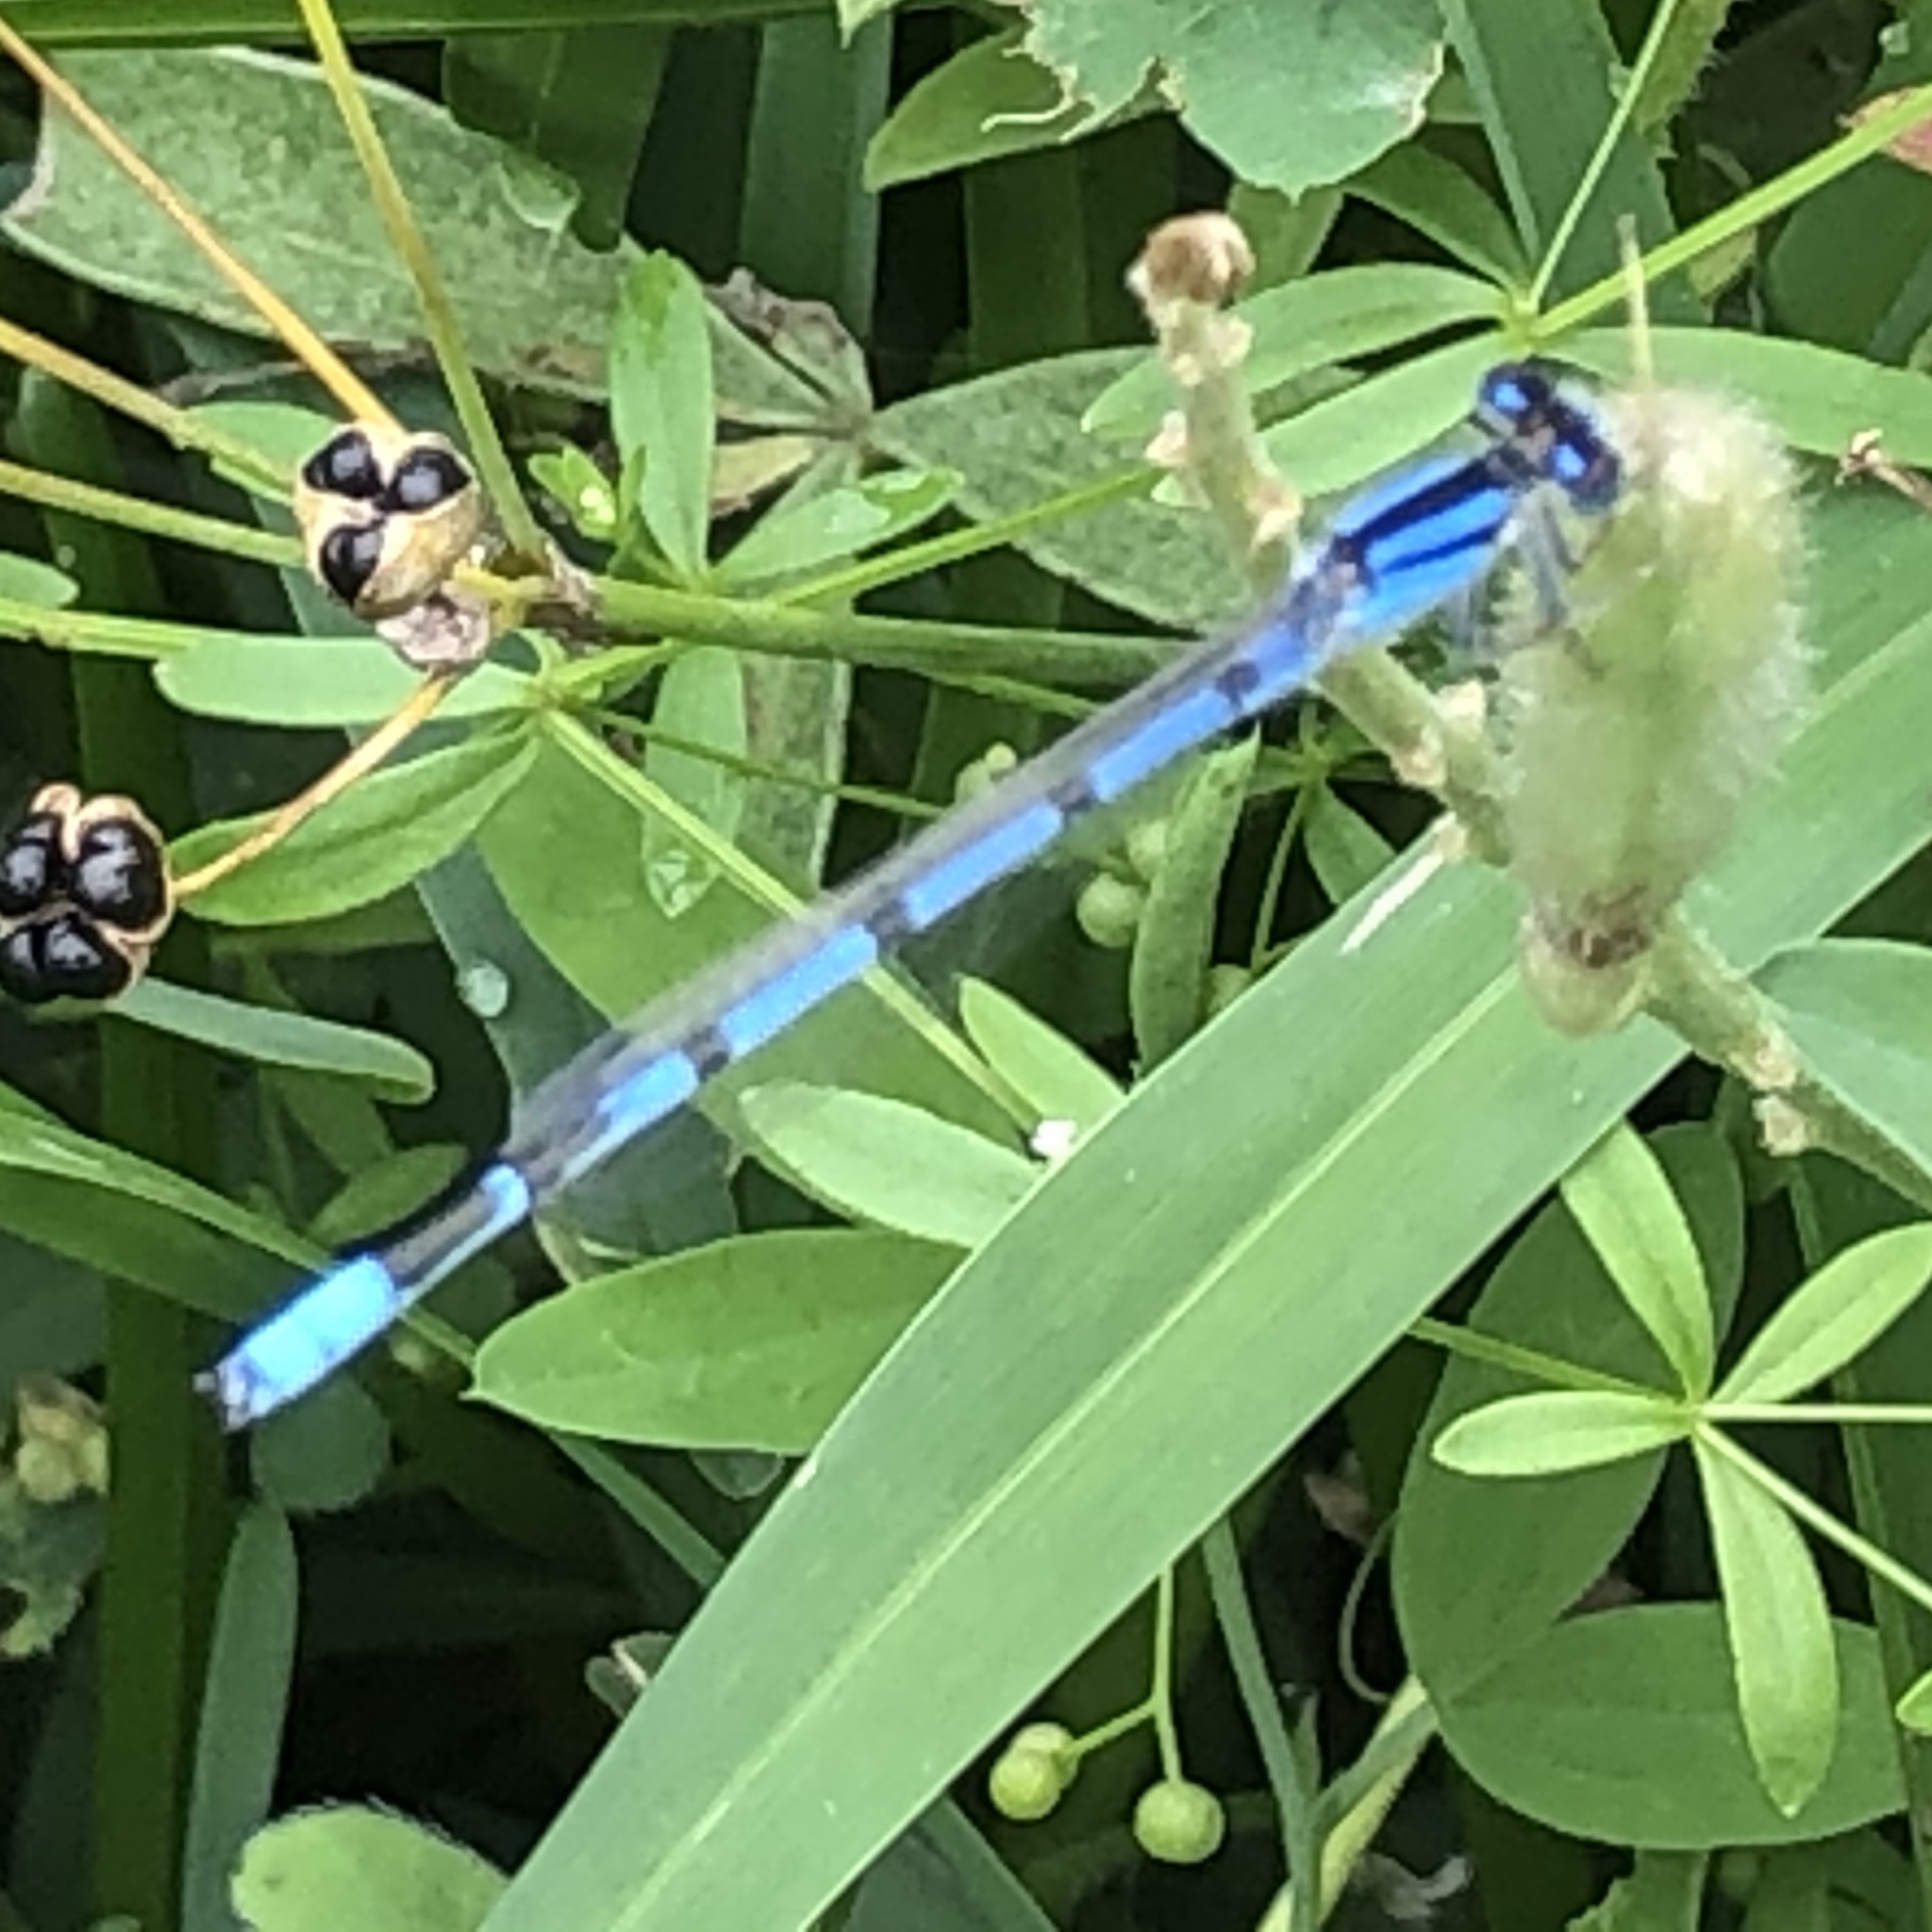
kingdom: Animalia
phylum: Arthropoda
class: Insecta
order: Odonata
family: Coenagrionidae
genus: Enallagma
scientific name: Enallagma civile
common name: Damselfly
